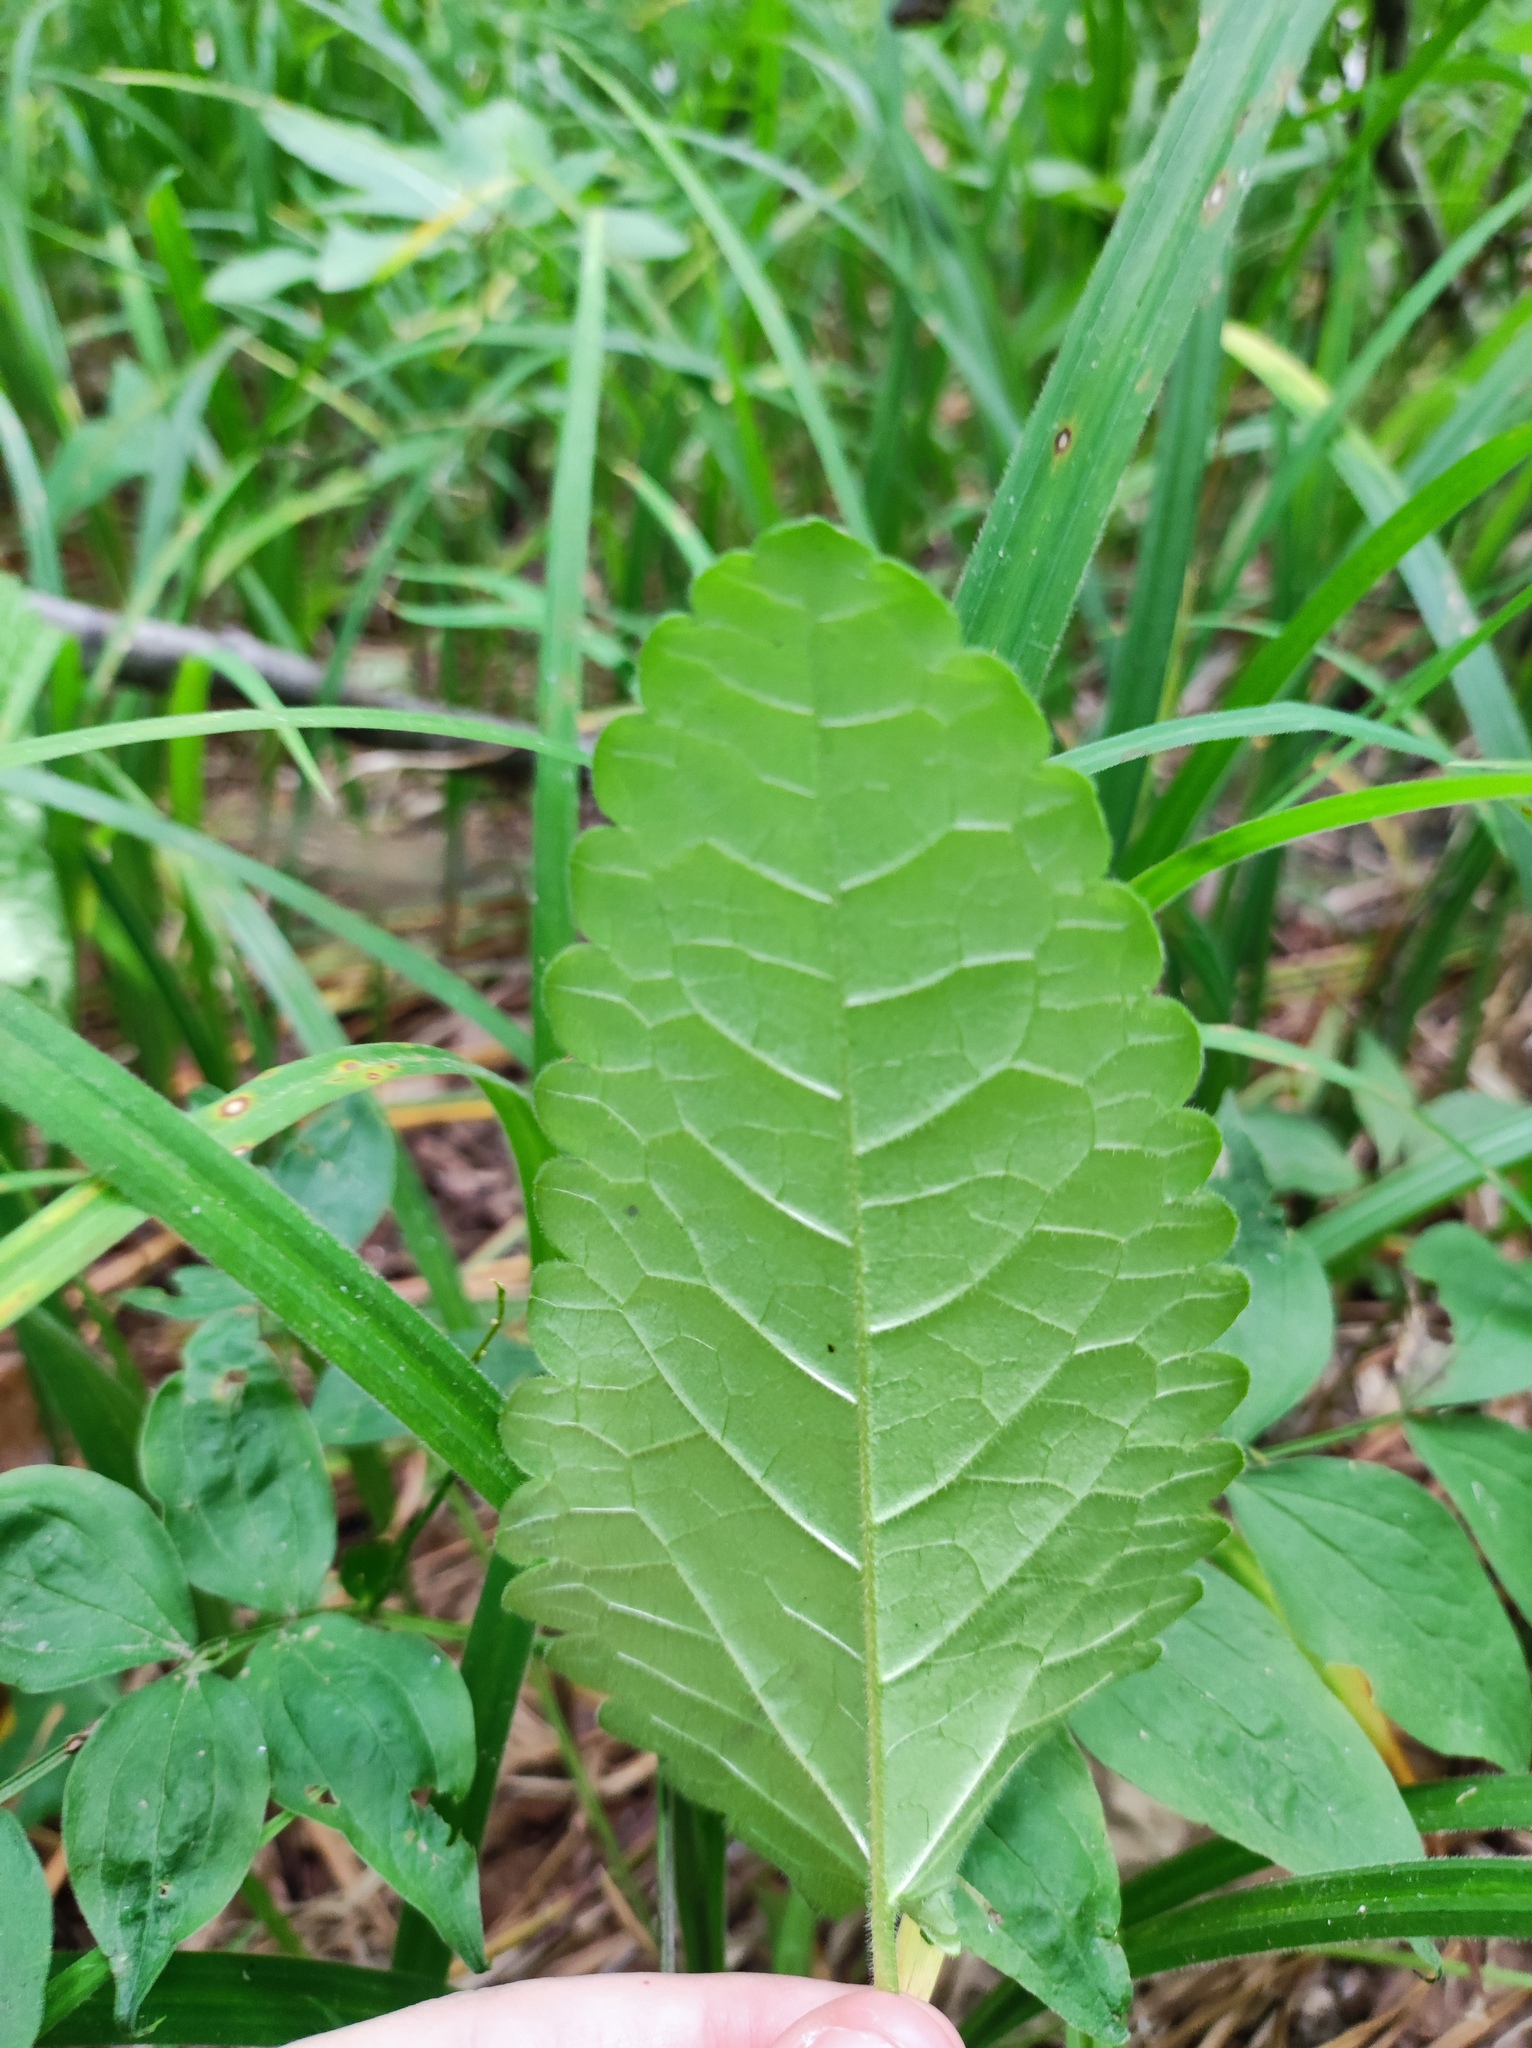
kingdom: Plantae
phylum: Tracheophyta
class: Magnoliopsida
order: Lamiales
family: Lamiaceae
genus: Betonica
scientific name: Betonica officinalis
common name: Bishop's-wort
